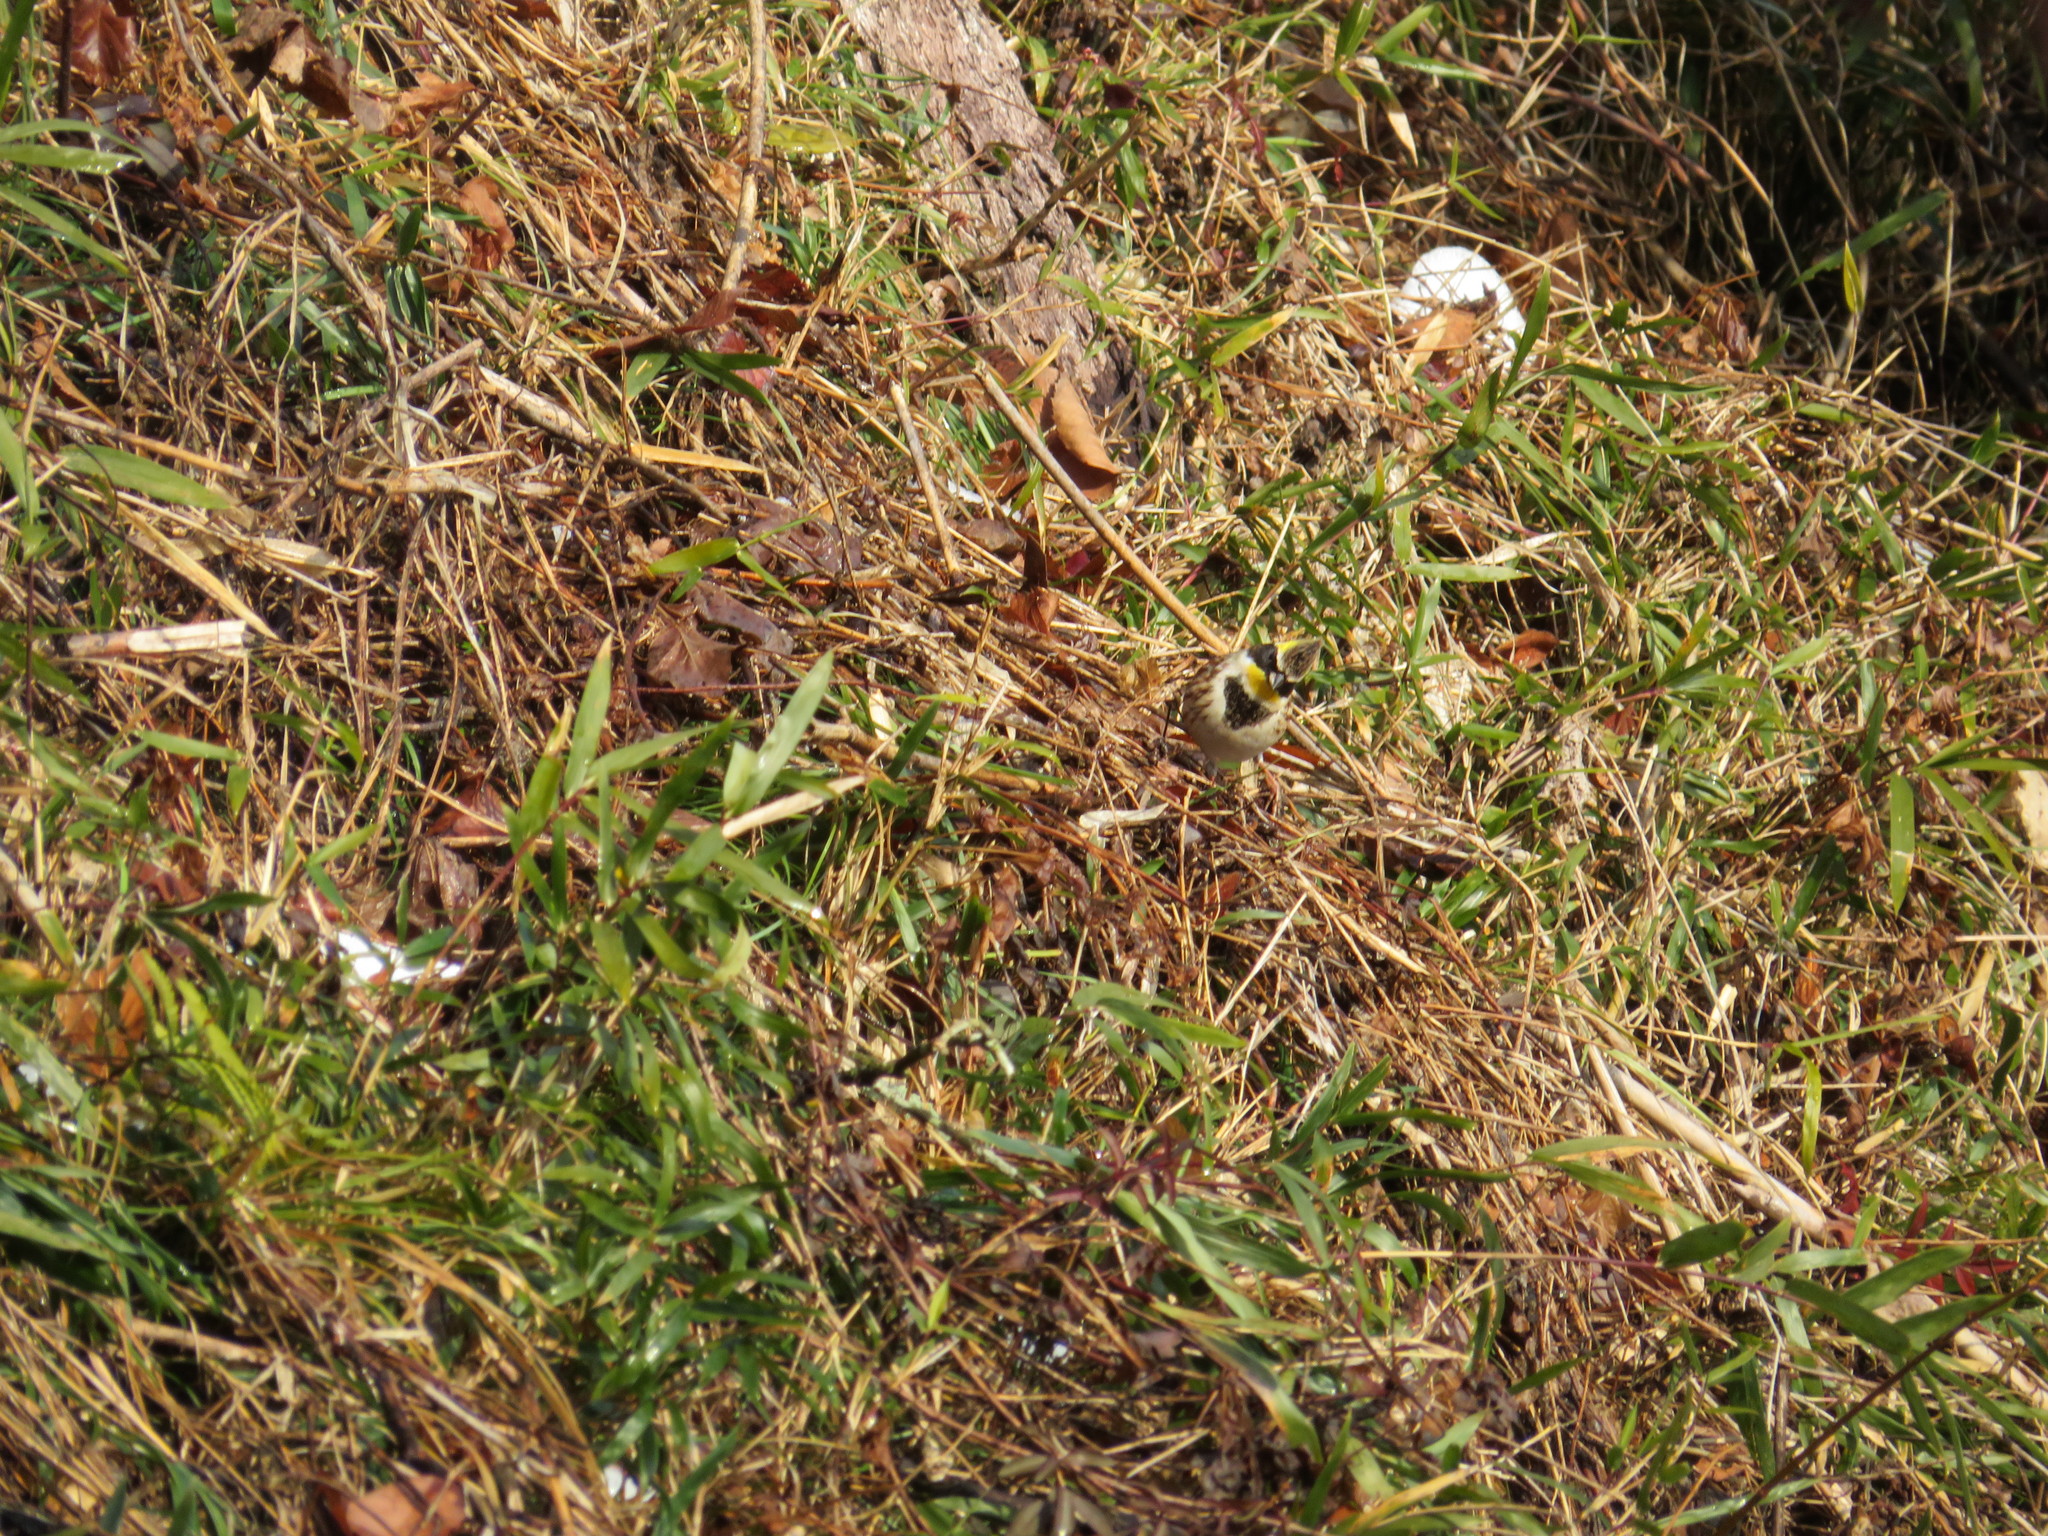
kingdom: Animalia
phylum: Chordata
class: Aves
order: Passeriformes
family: Emberizidae
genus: Emberiza
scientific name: Emberiza elegans
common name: Yellow-throated bunting
